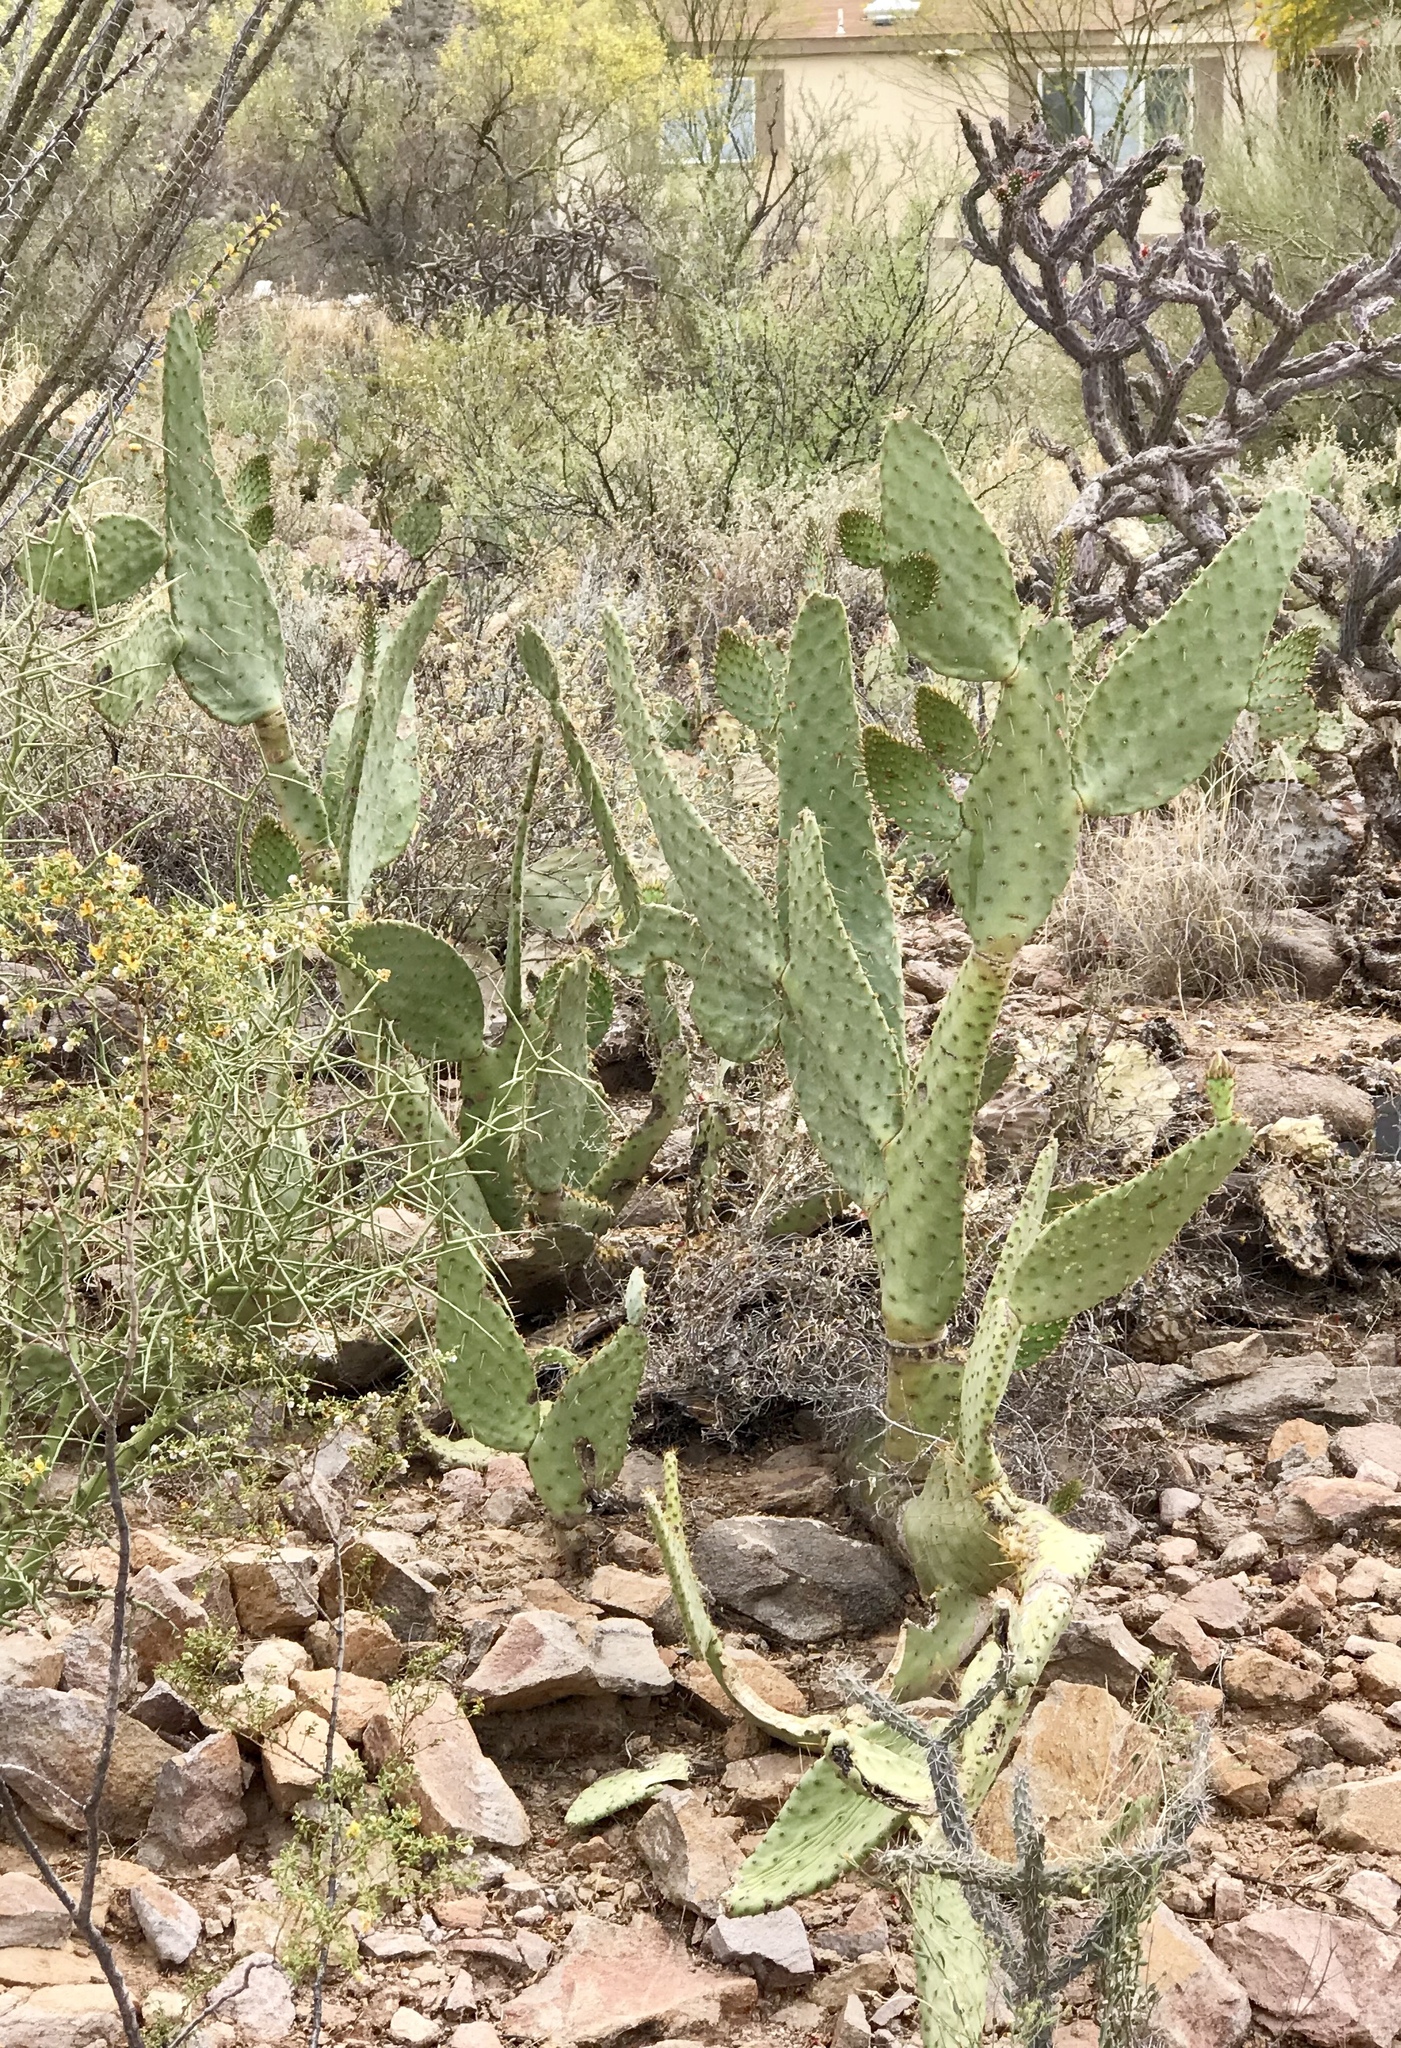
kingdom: Plantae
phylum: Tracheophyta
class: Magnoliopsida
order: Caryophyllales
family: Cactaceae
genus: Opuntia
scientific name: Opuntia engelmannii
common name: Cactus-apple
